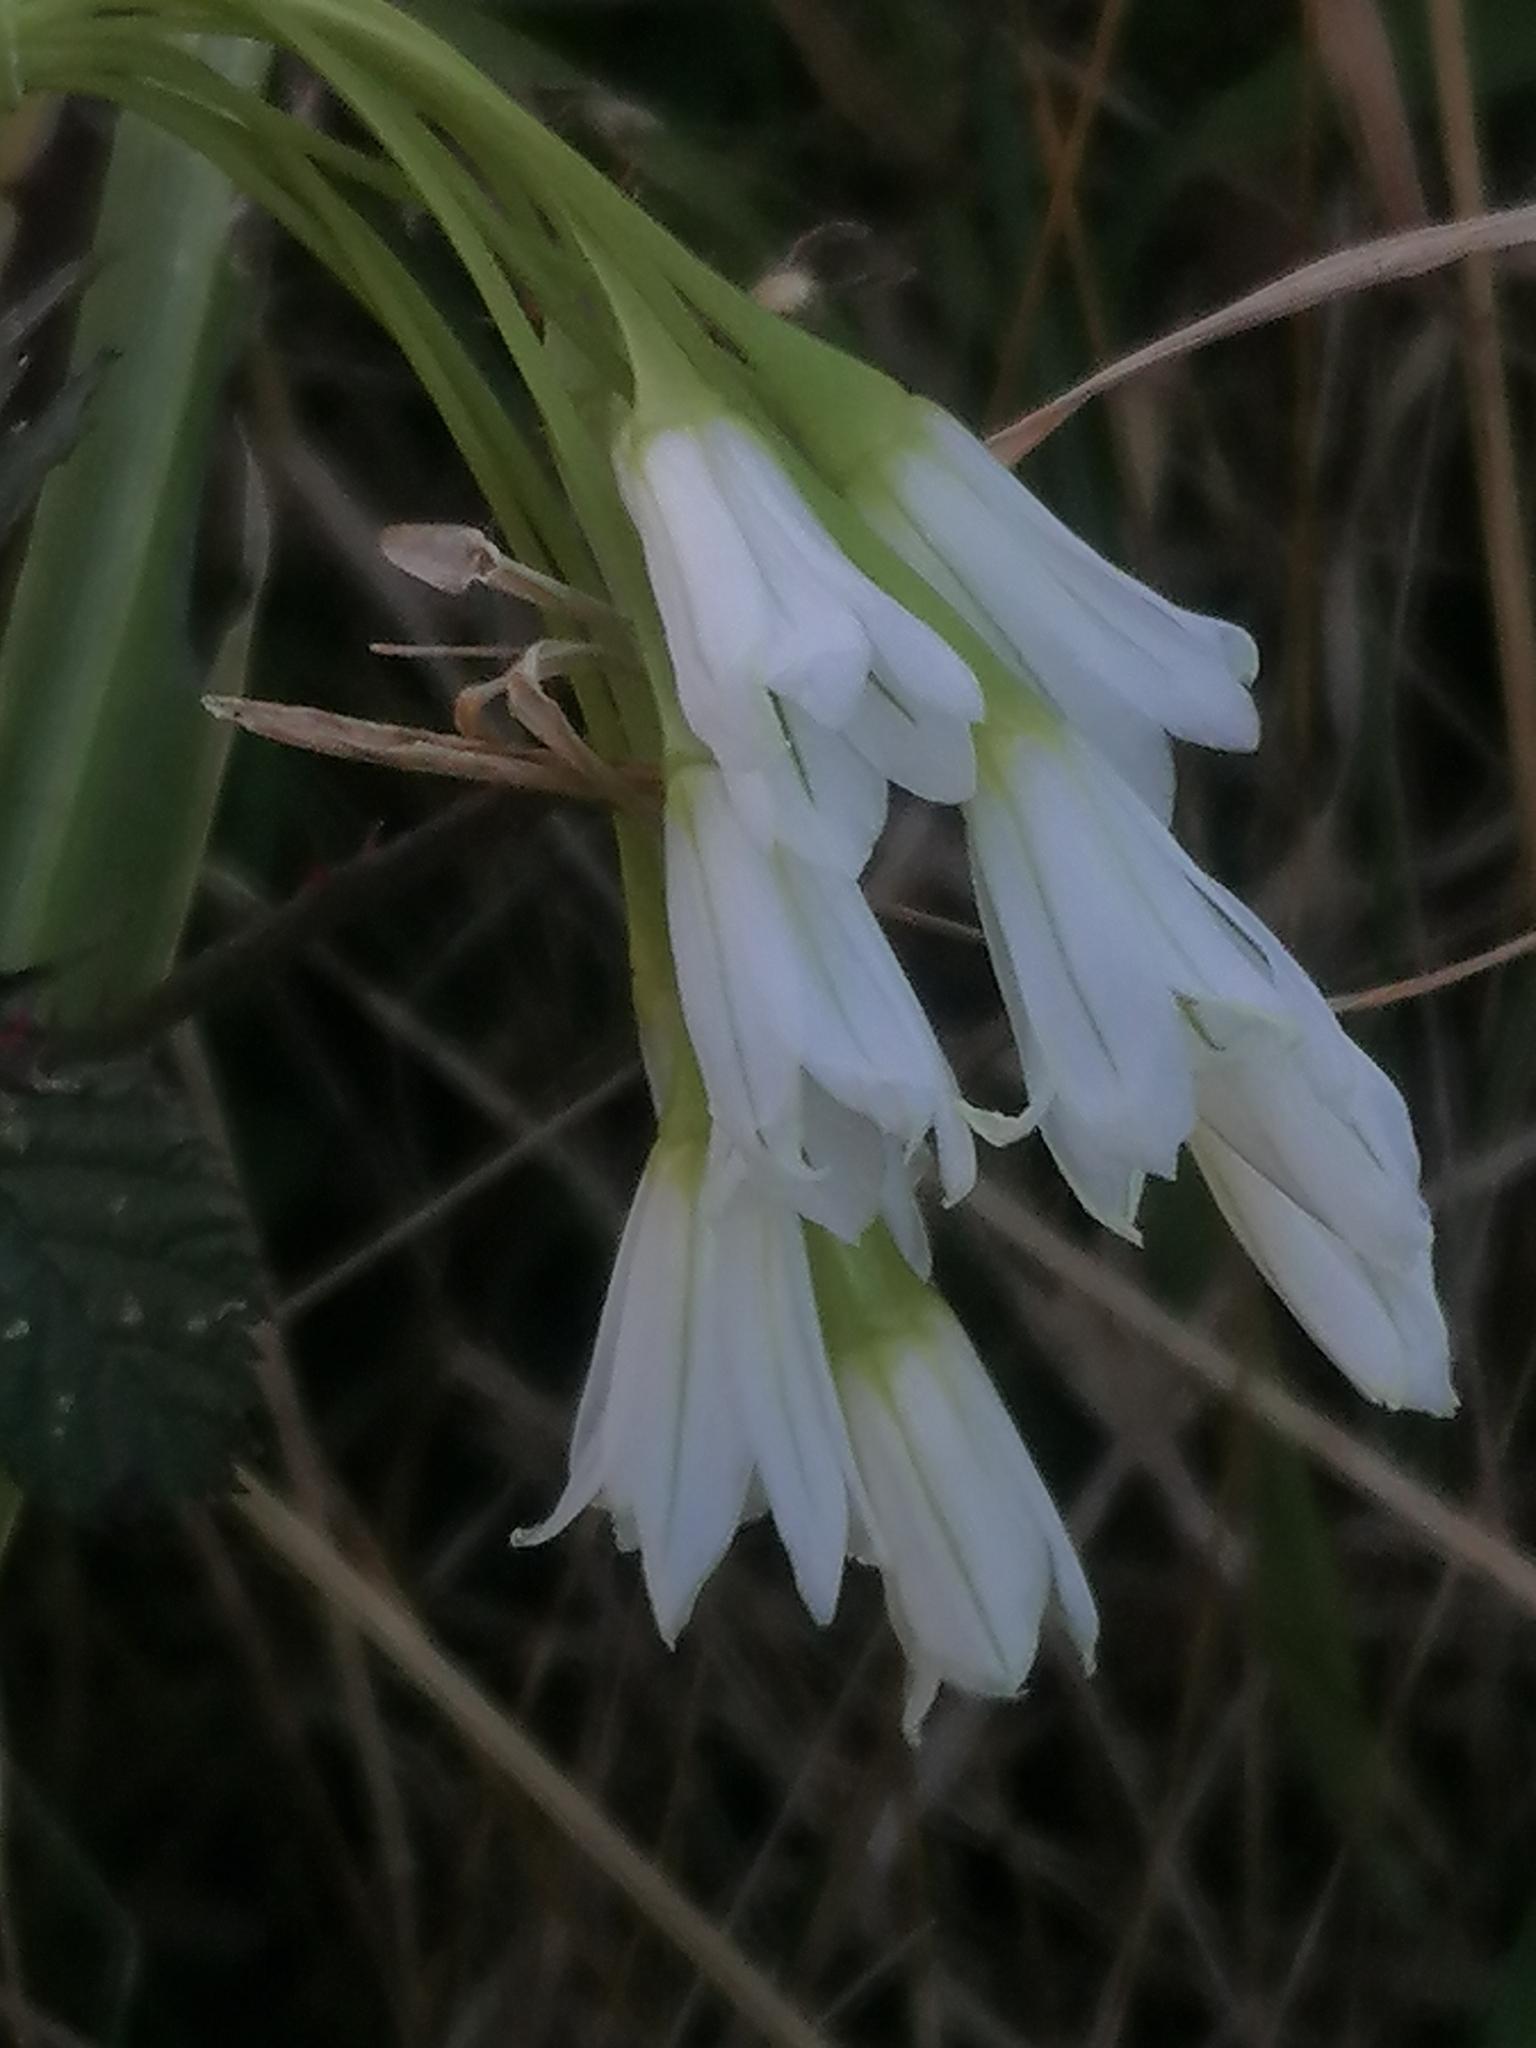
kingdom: Plantae
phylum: Tracheophyta
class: Liliopsida
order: Asparagales
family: Amaryllidaceae
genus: Allium
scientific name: Allium triquetrum
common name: Three-cornered garlic
